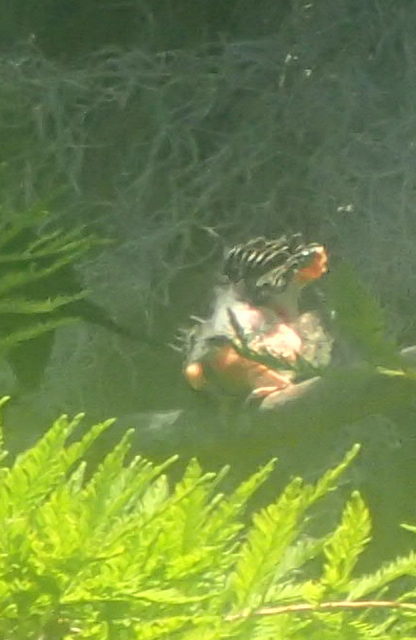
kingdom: Animalia
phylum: Chordata
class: Aves
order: Passeriformes
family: Icteridae
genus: Agelaius
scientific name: Agelaius phoeniceus
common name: Red-winged blackbird
